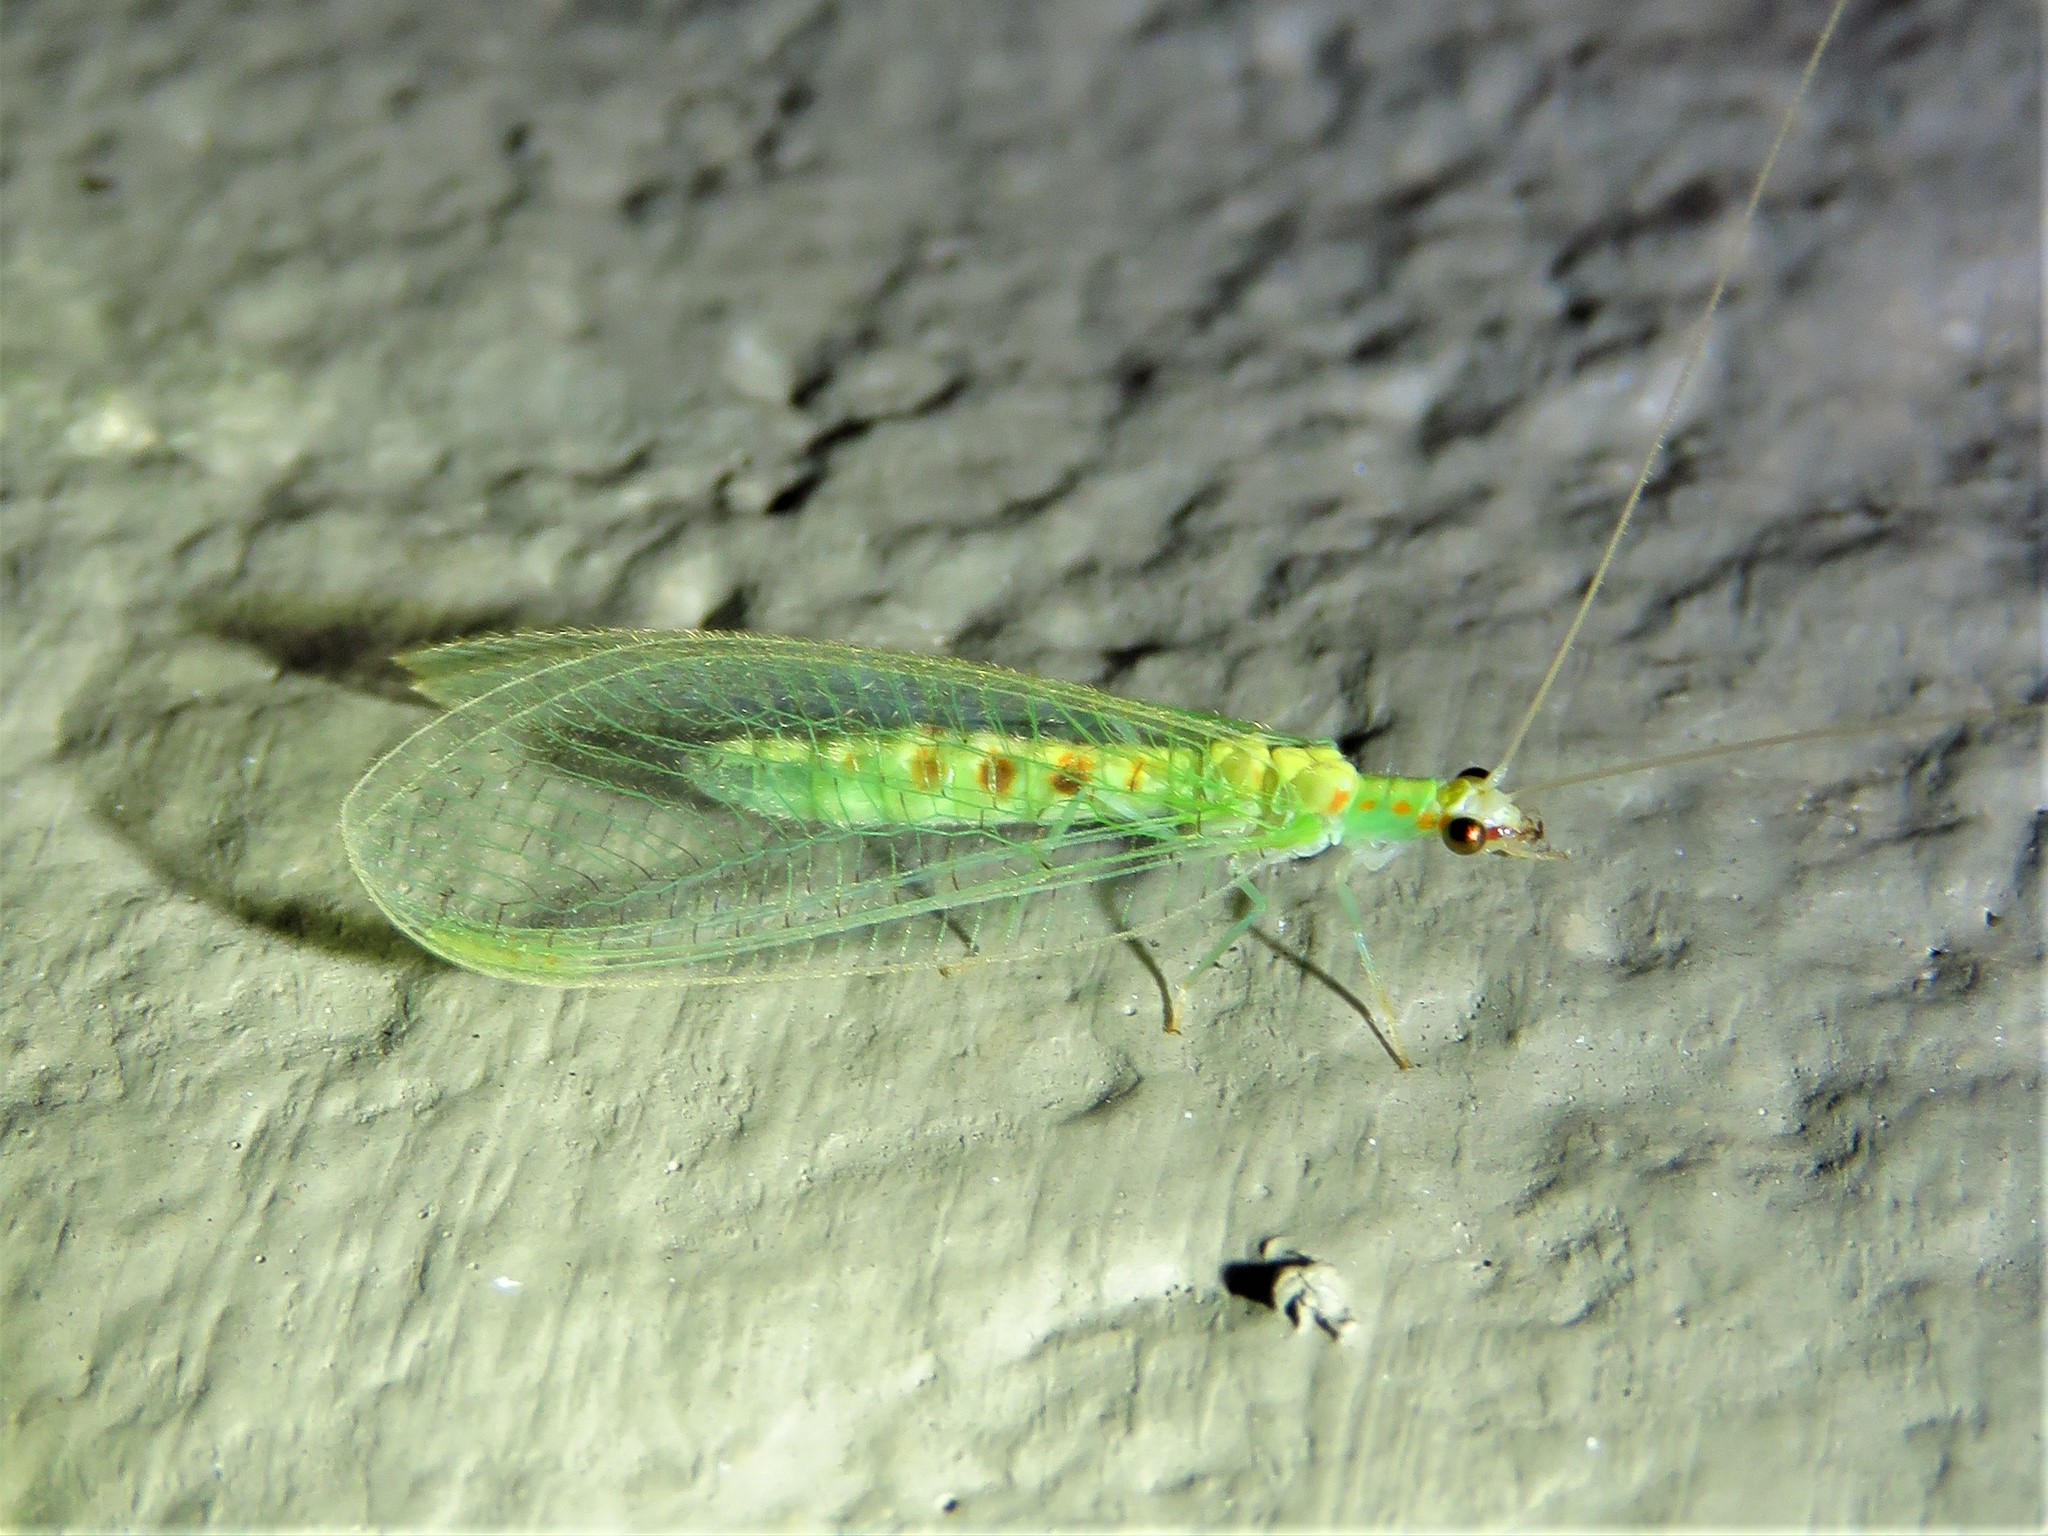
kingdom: Animalia
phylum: Arthropoda
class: Insecta
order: Neuroptera
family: Chrysopidae
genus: Chrysopa
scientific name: Chrysopa quadripunctata
